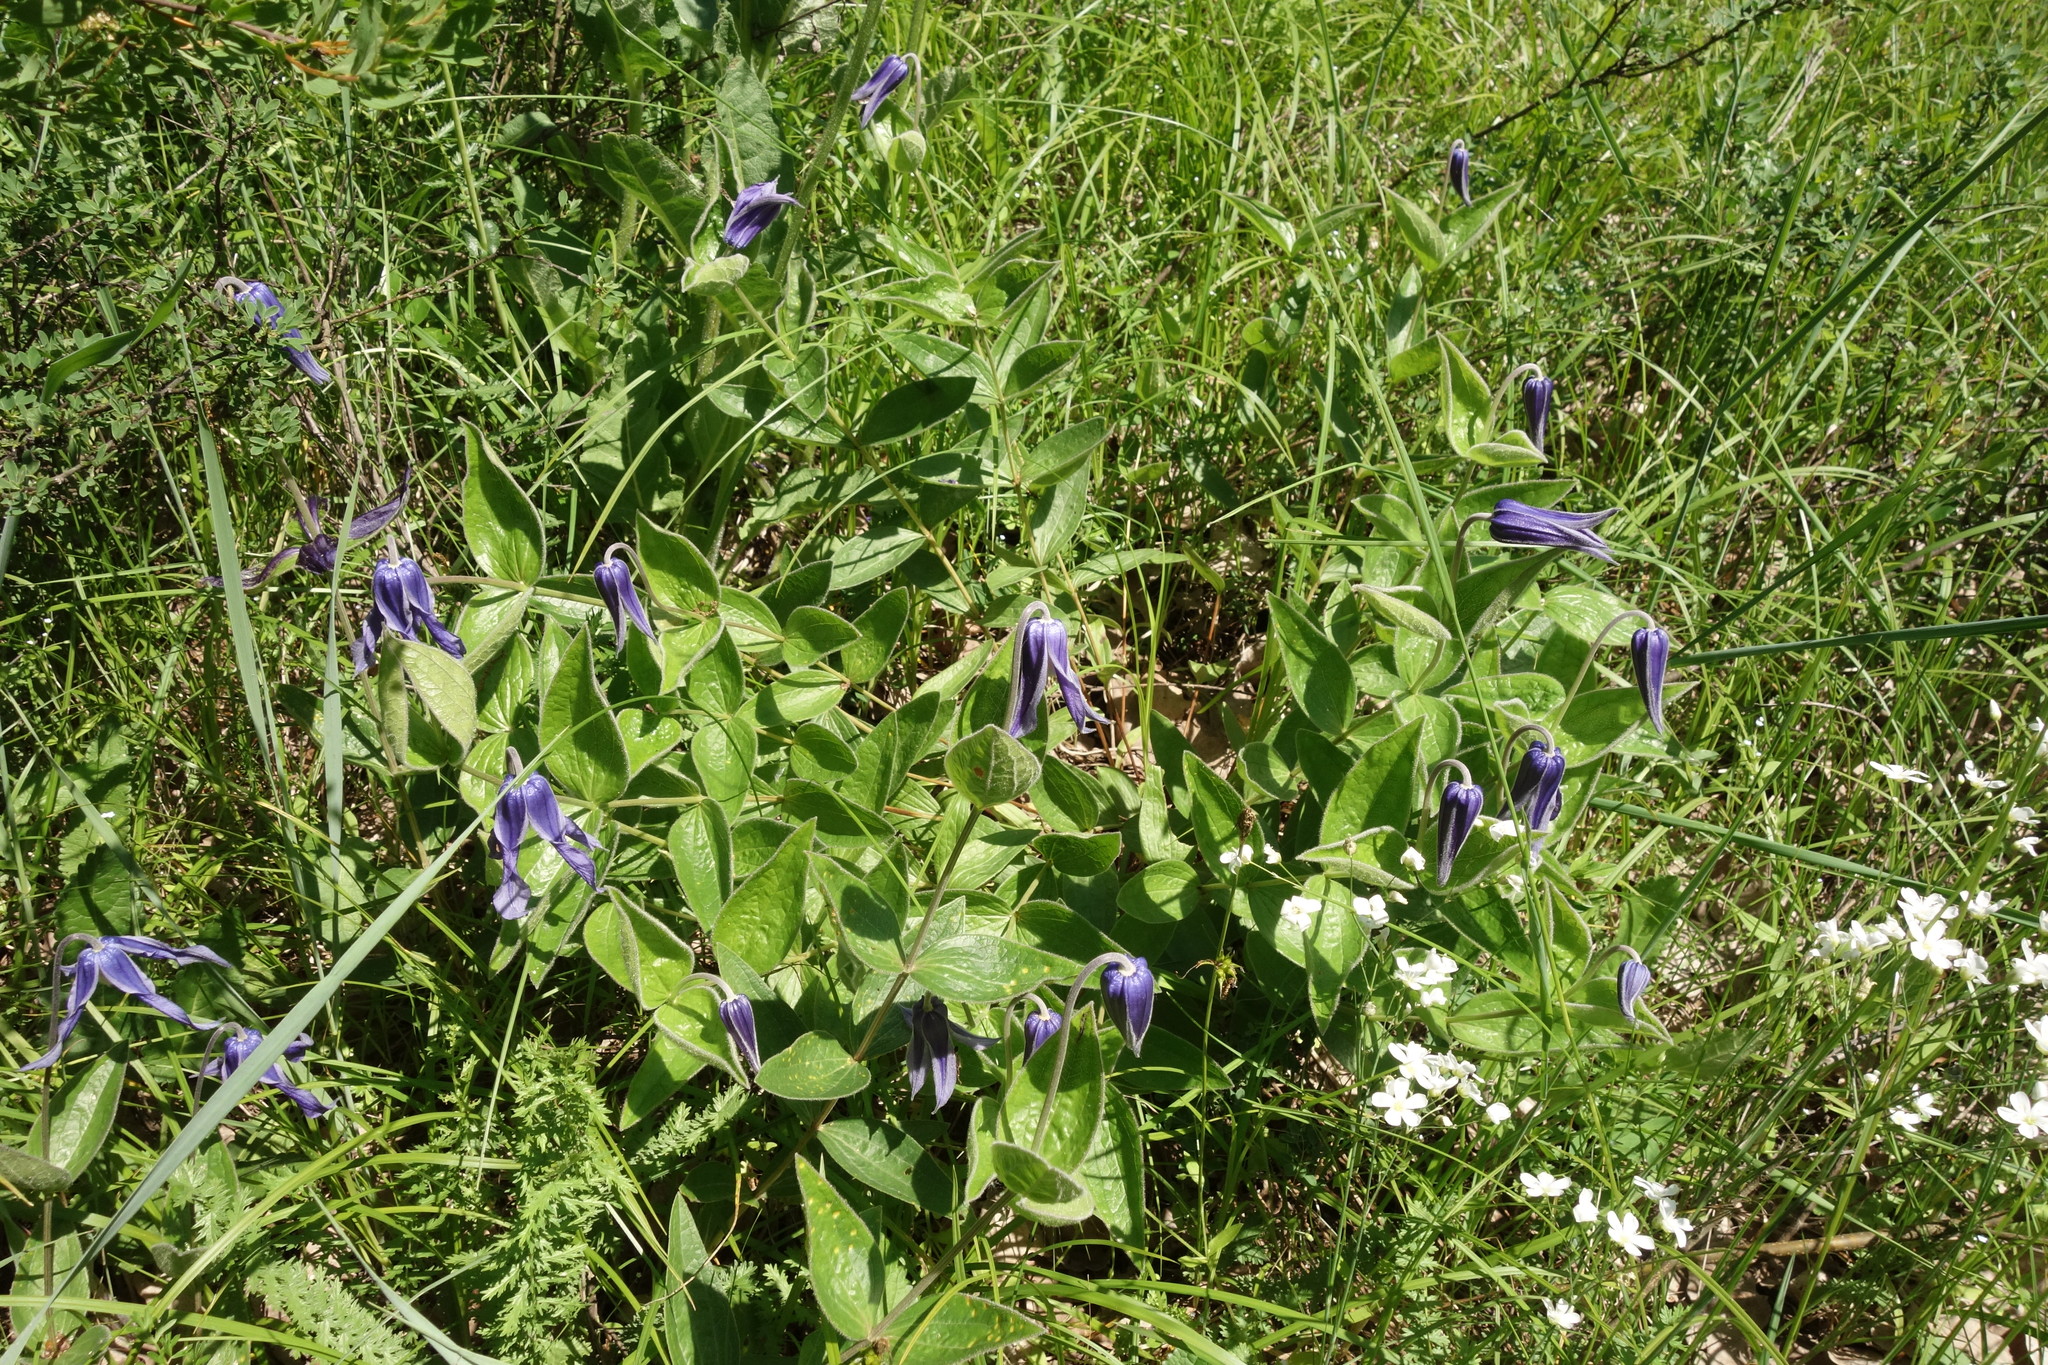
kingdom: Plantae
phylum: Tracheophyta
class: Magnoliopsida
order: Ranunculales
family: Ranunculaceae
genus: Clematis
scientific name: Clematis integrifolia
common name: Solitary clematis
